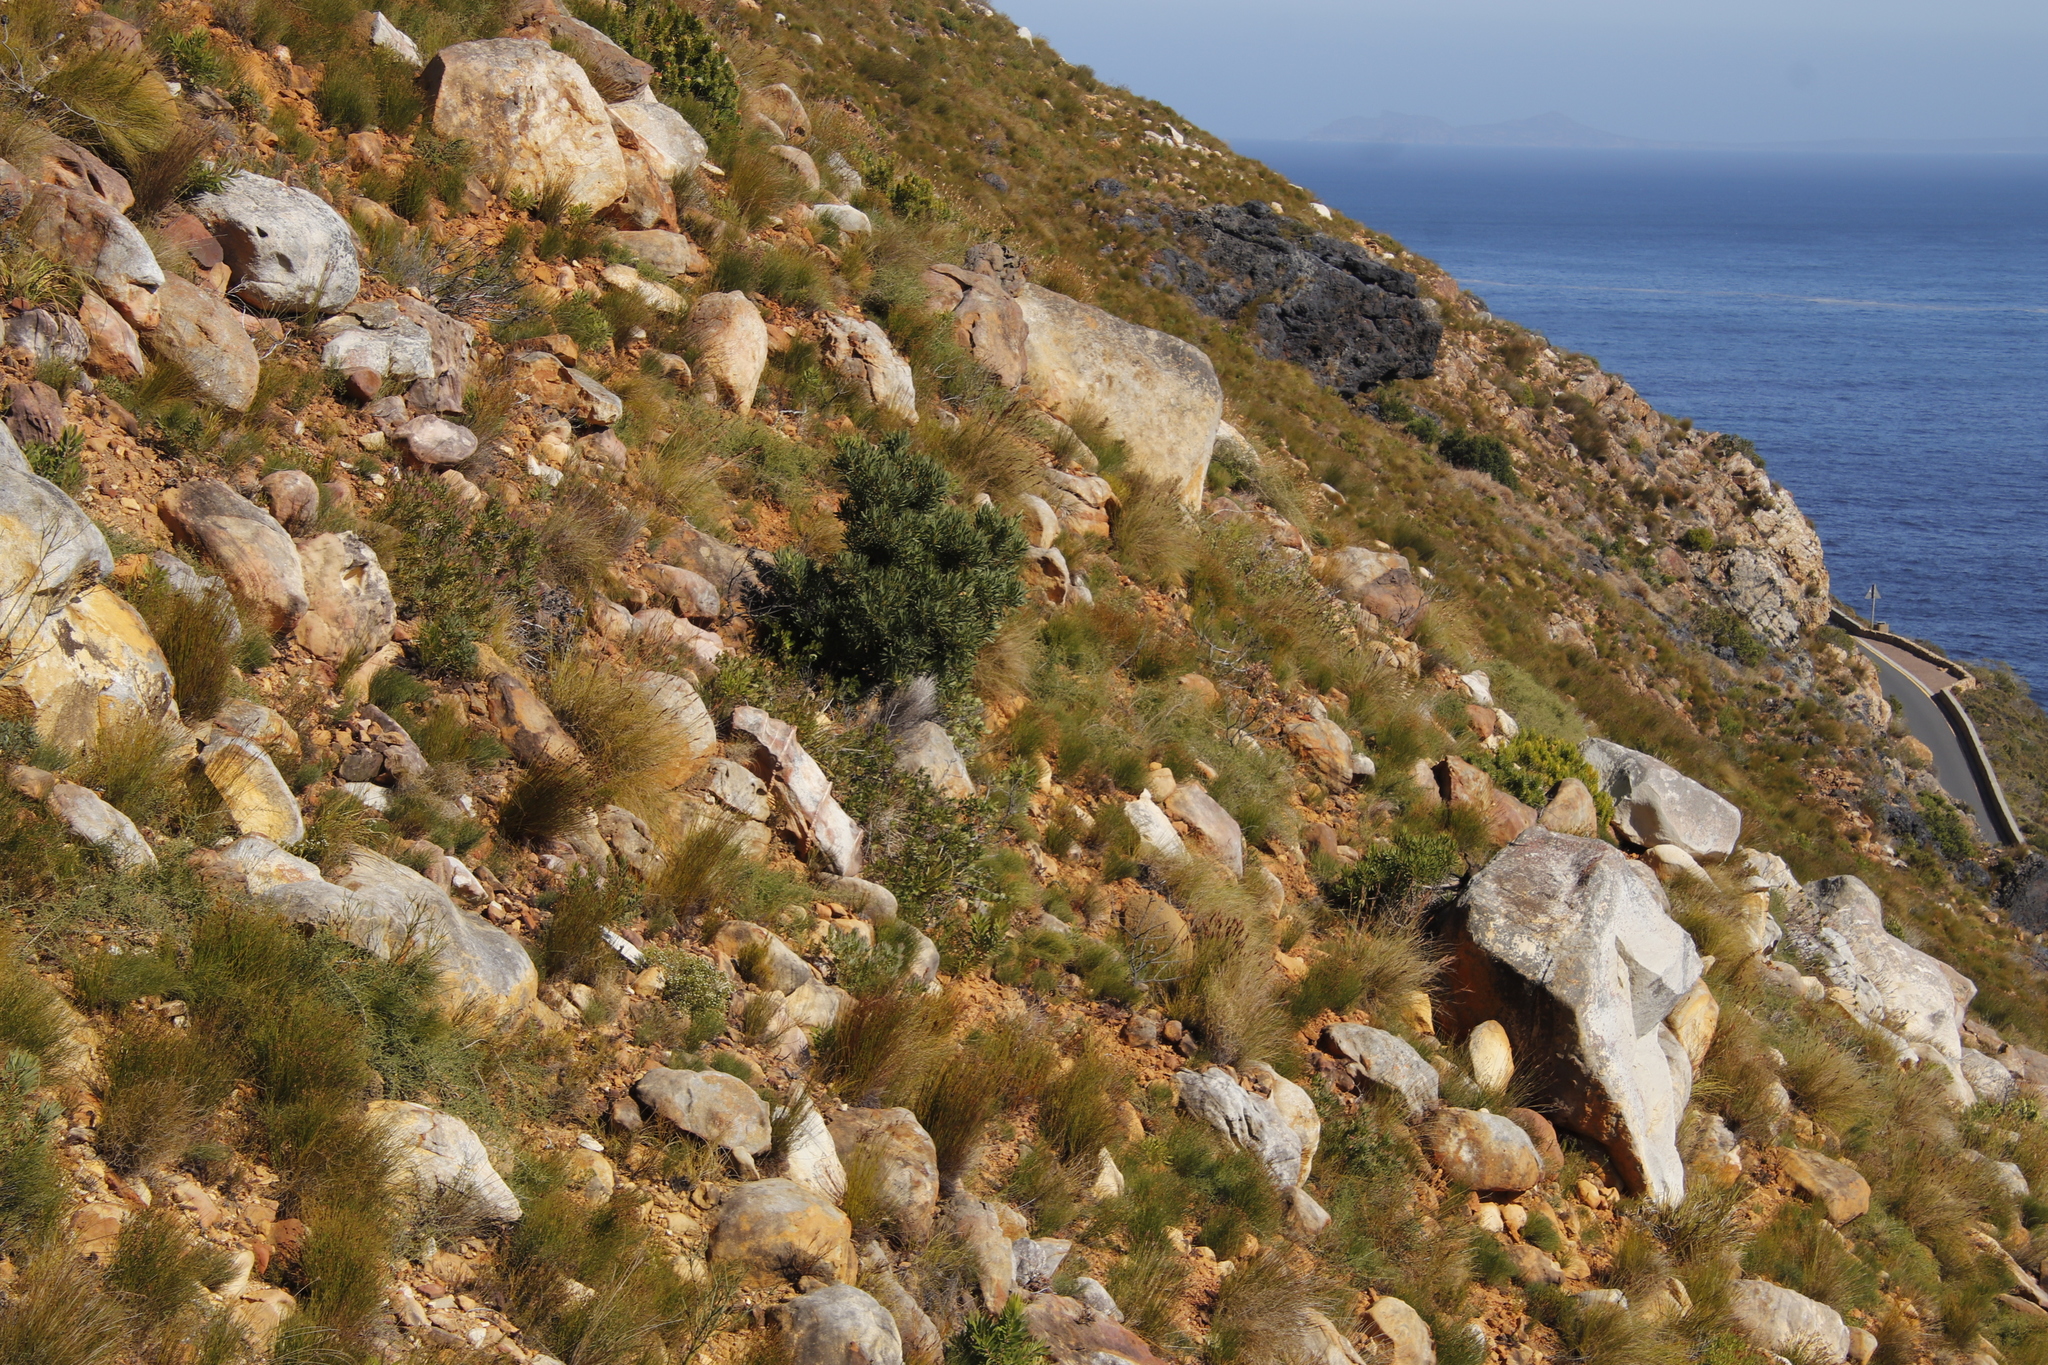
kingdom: Plantae
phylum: Tracheophyta
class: Magnoliopsida
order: Proteales
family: Proteaceae
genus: Protea
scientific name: Protea laurifolia
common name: Grey-leaf sugarbsh
